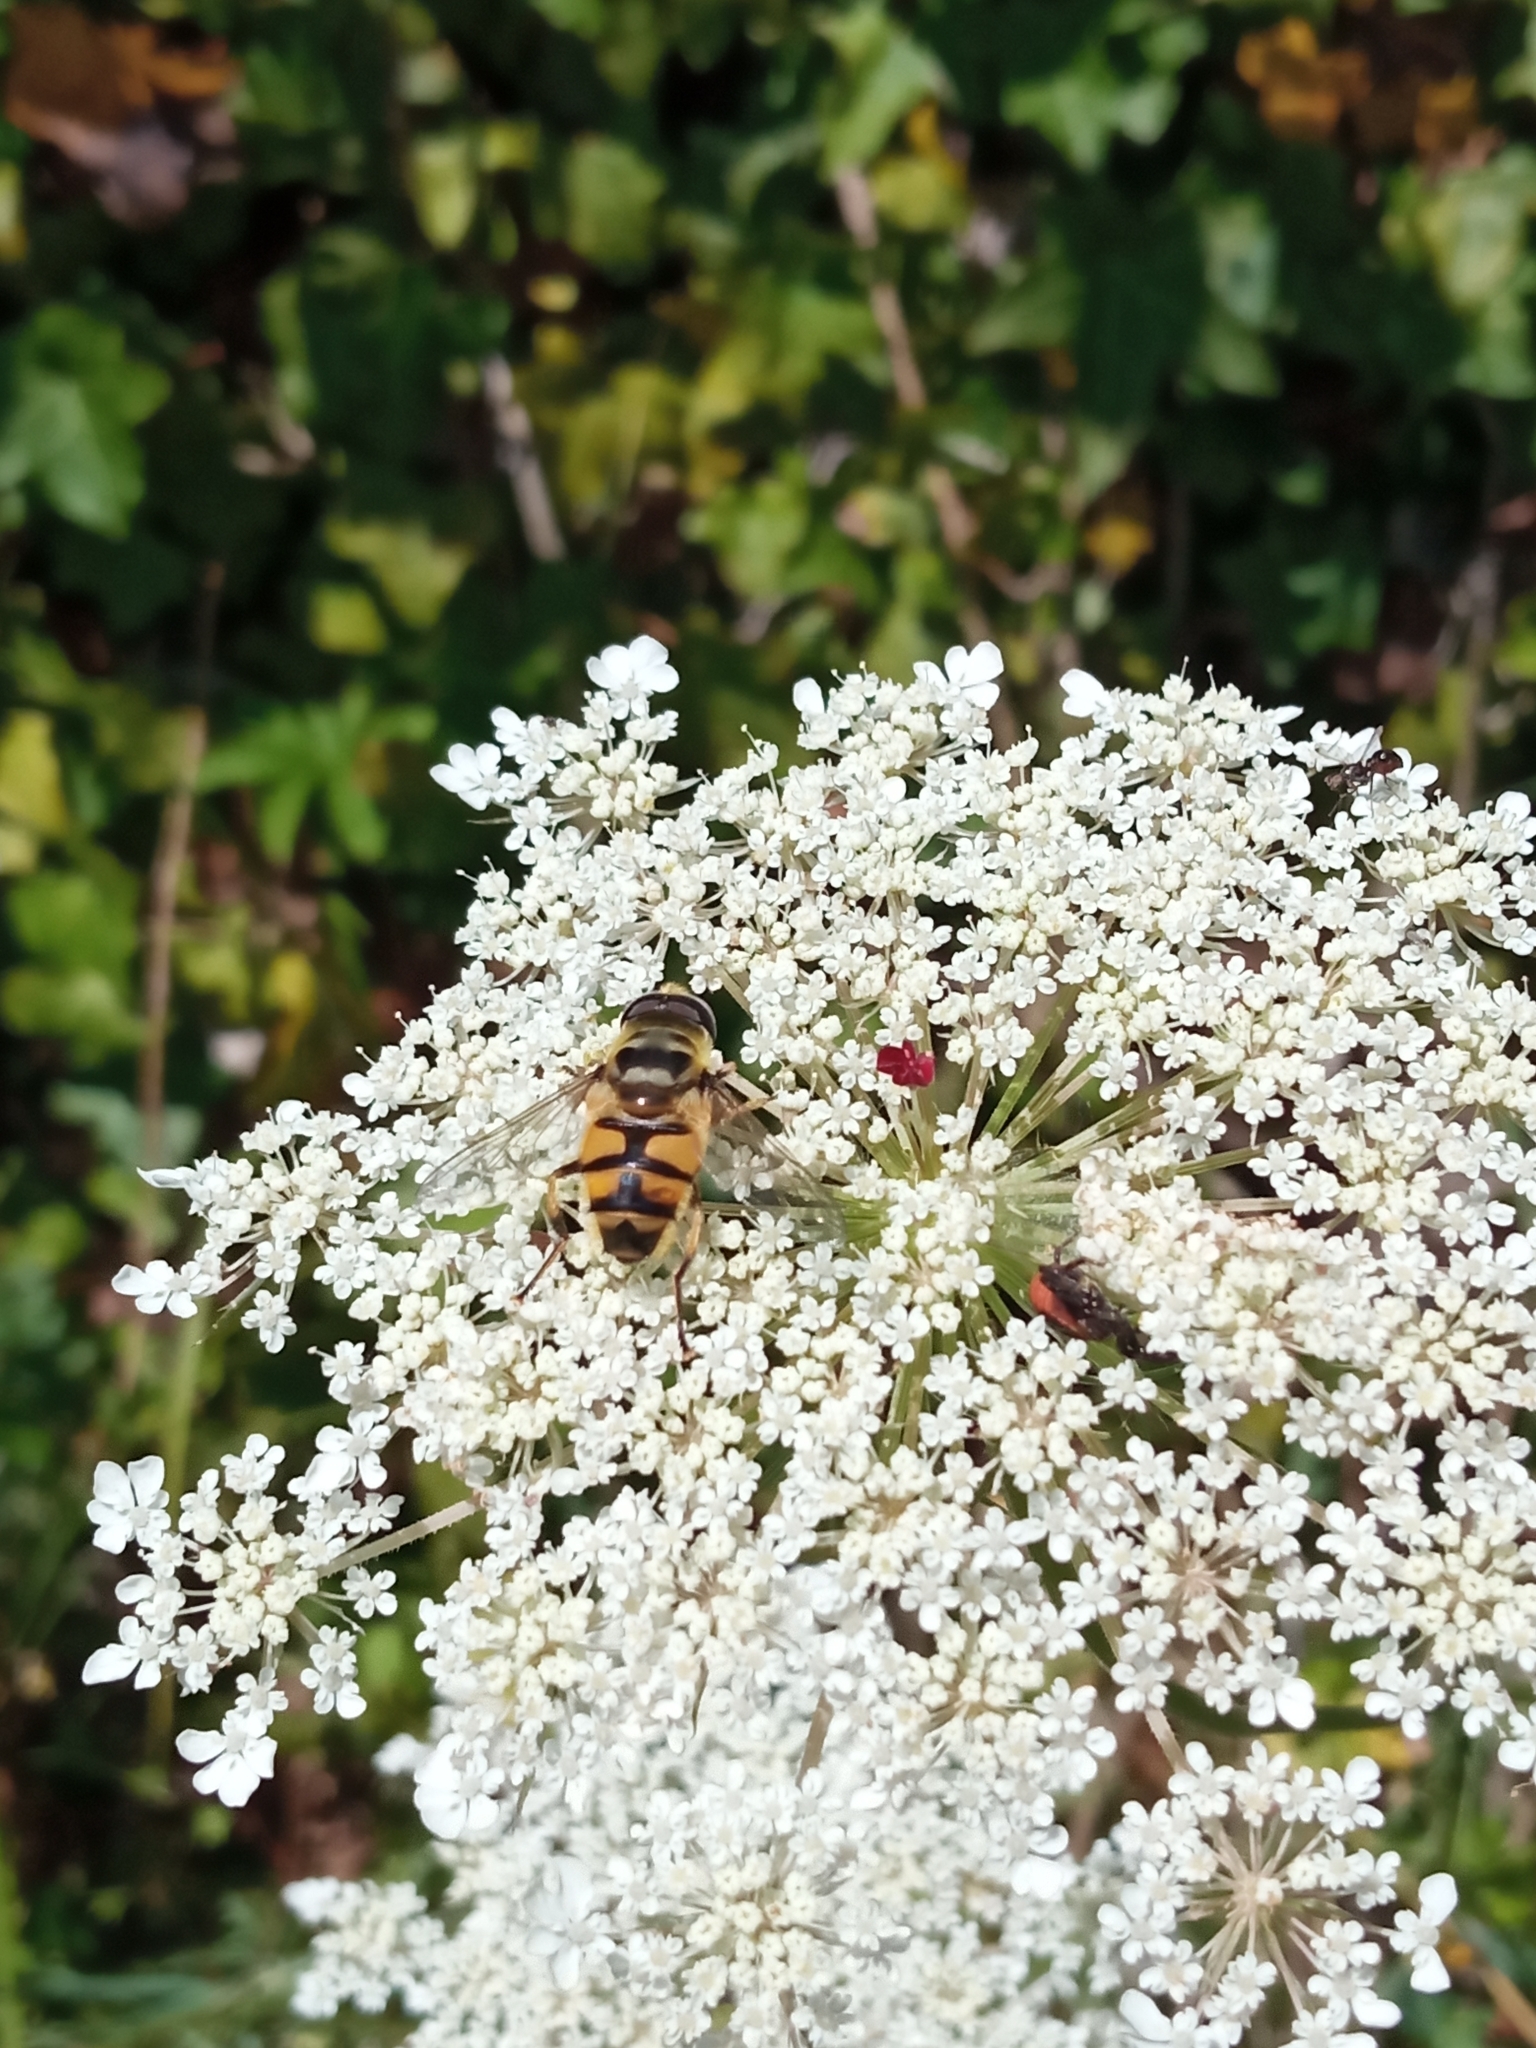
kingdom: Animalia
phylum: Arthropoda
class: Insecta
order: Diptera
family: Syrphidae
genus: Myathropa
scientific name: Myathropa florea
